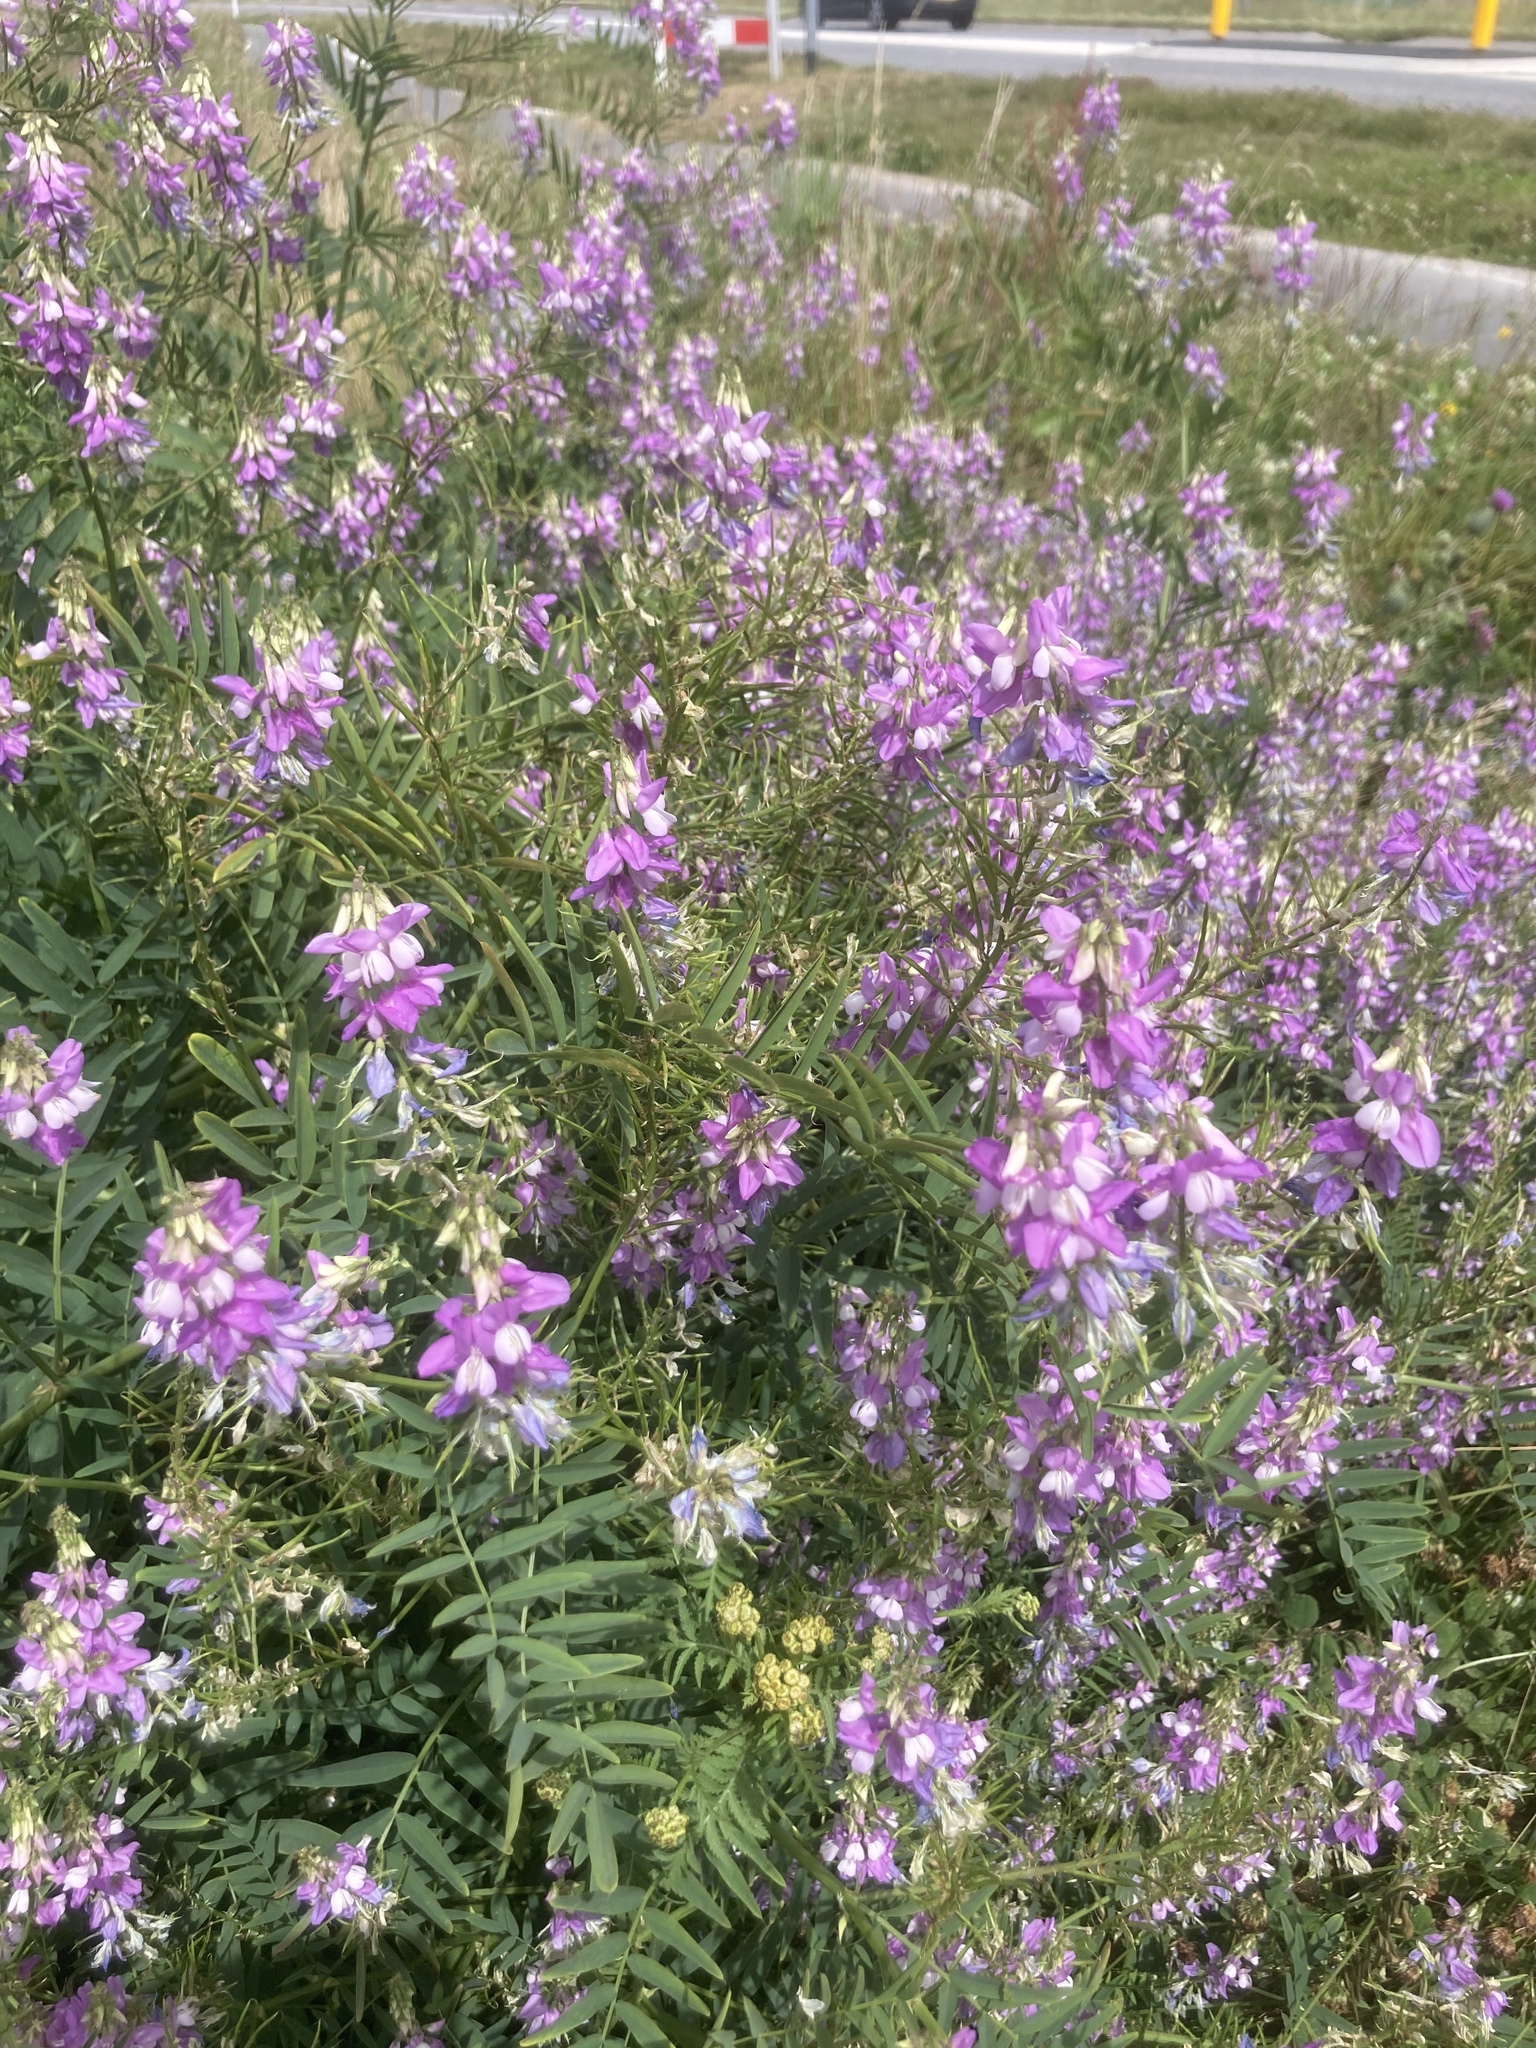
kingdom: Plantae
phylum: Tracheophyta
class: Magnoliopsida
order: Fabales
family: Fabaceae
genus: Galega
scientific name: Galega officinalis
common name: Goat's-rue
